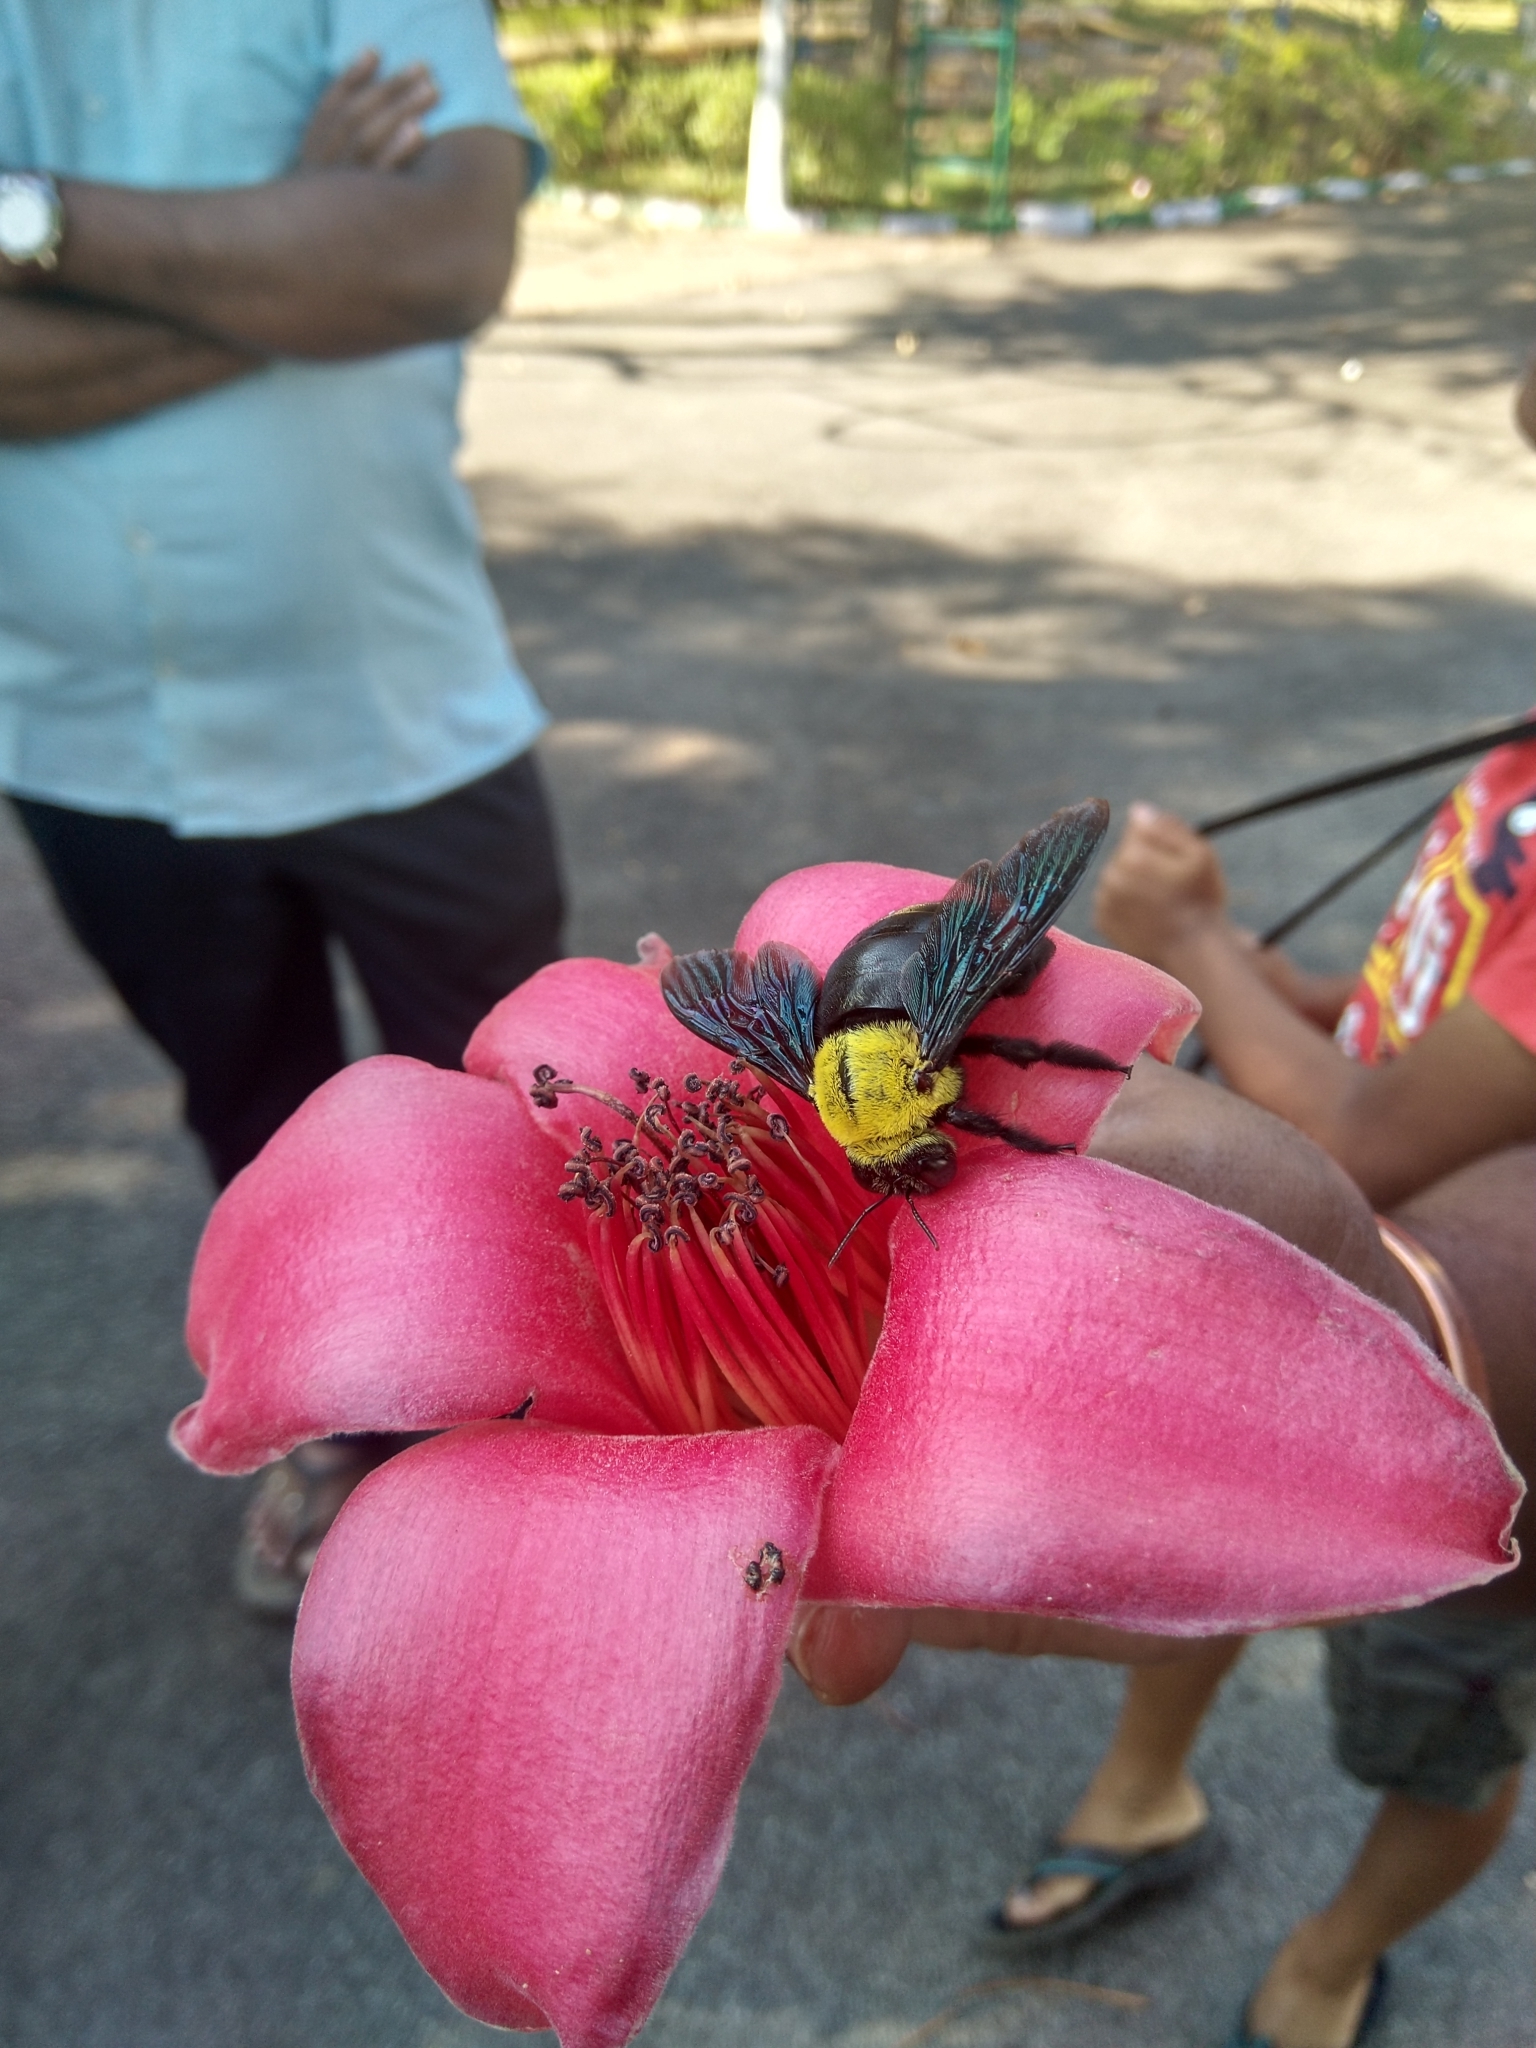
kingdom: Animalia
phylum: Arthropoda
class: Insecta
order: Hymenoptera
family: Apidae
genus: Xylocopa
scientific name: Xylocopa ruficornis
